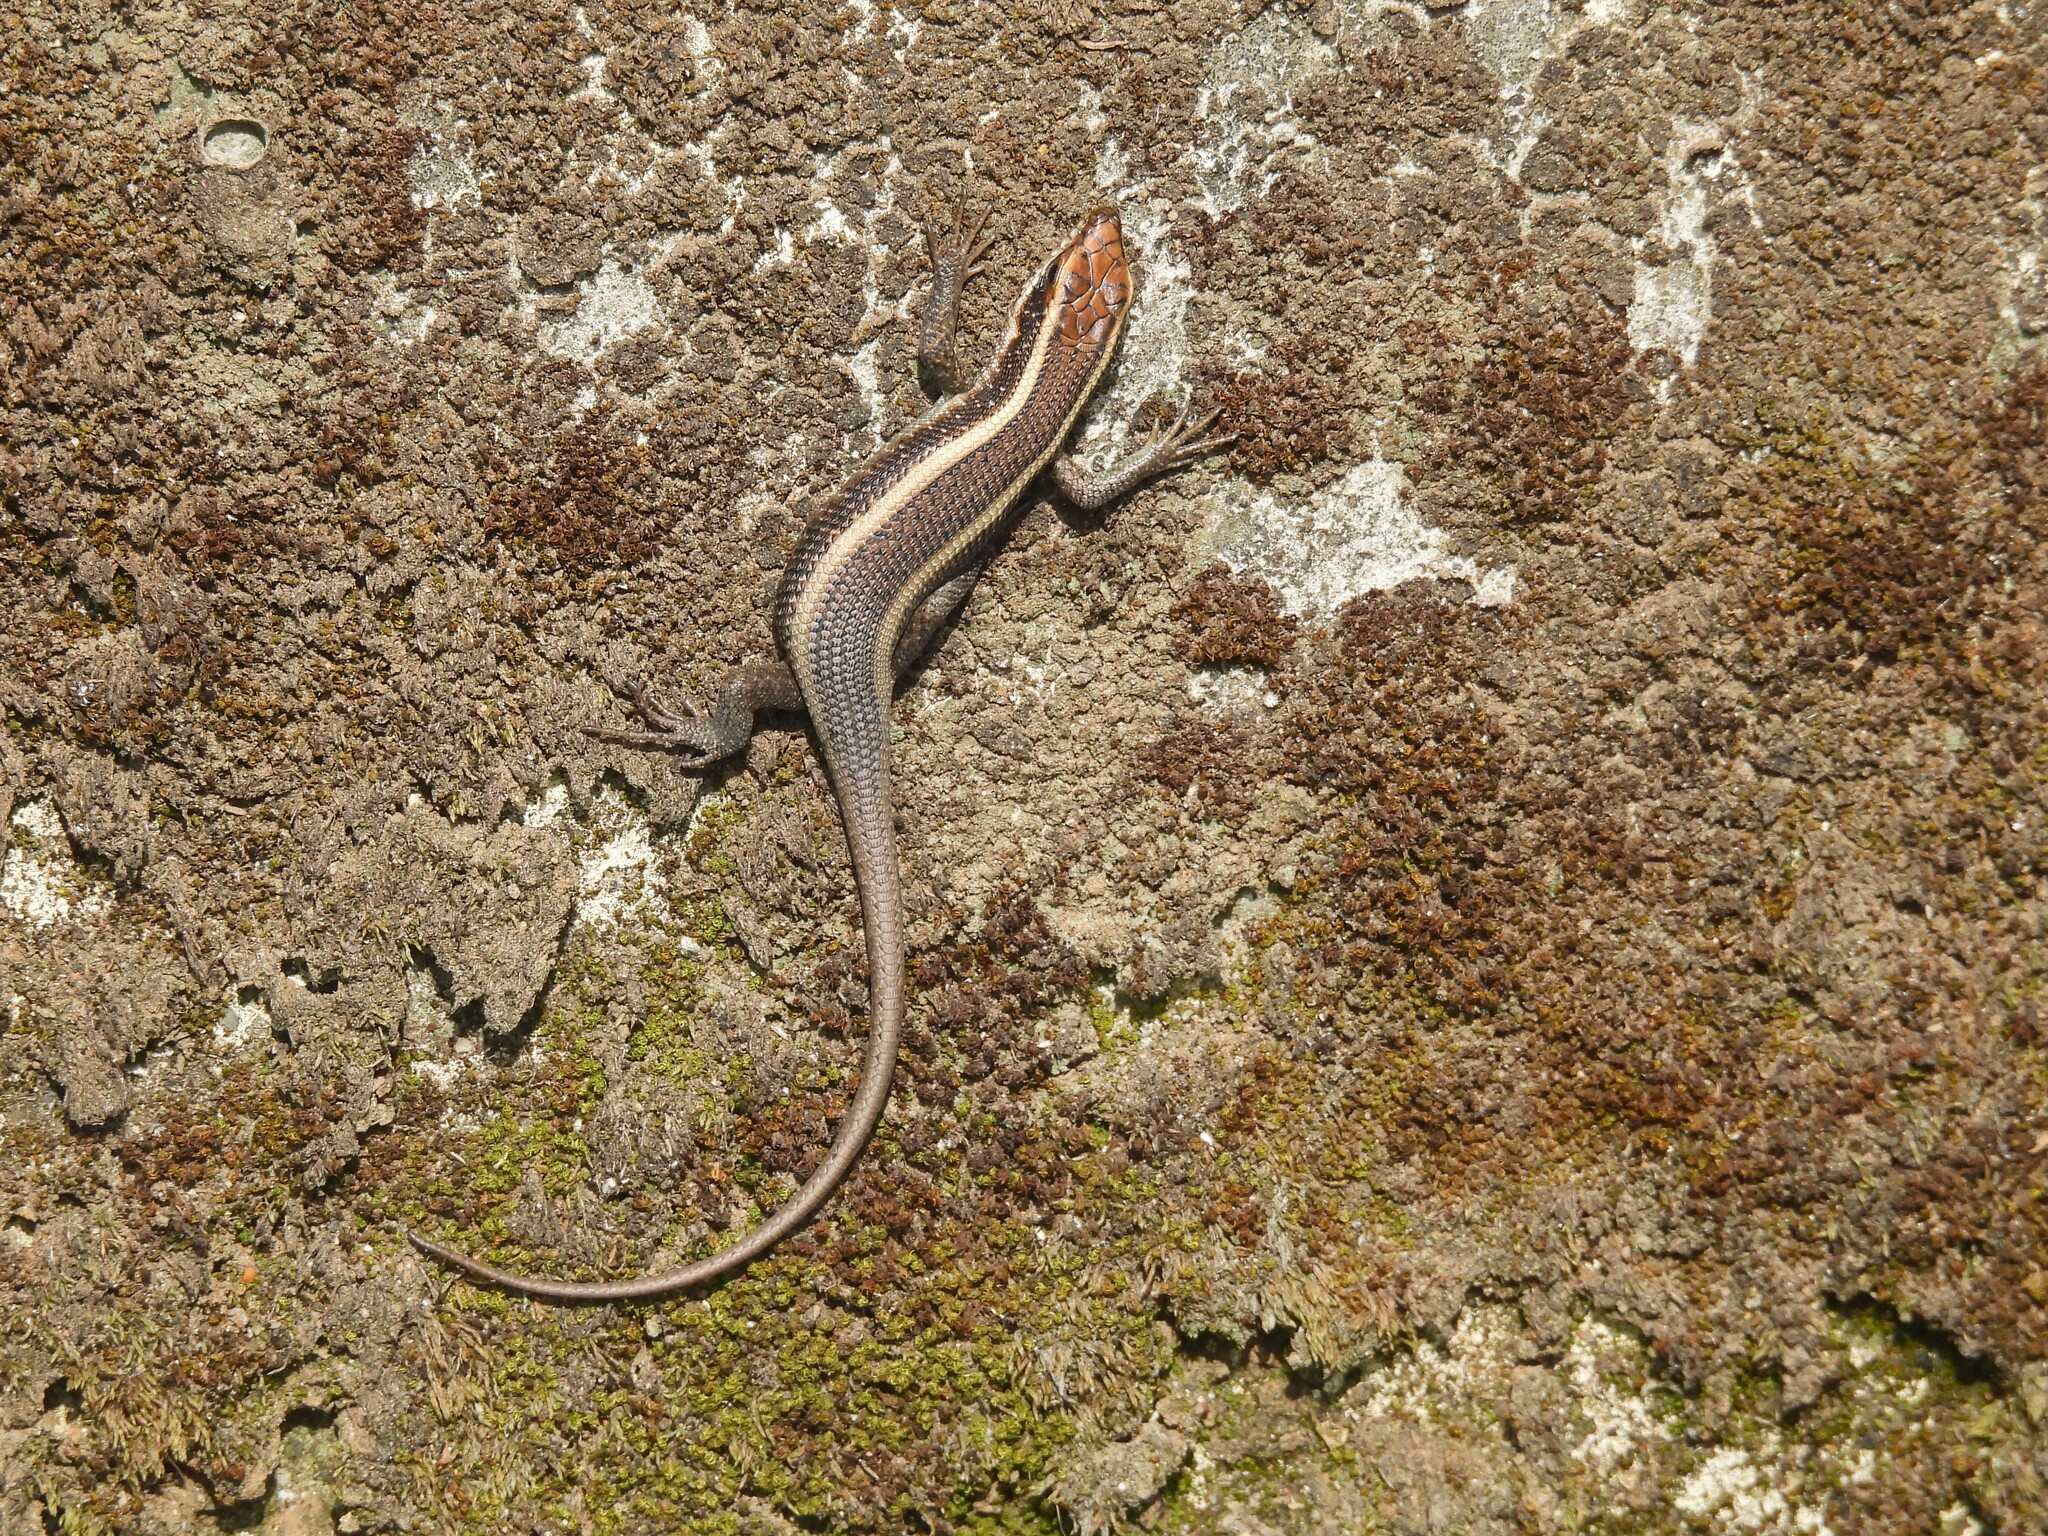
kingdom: Animalia
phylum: Chordata
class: Squamata
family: Scincidae
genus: Trachylepis
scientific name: Trachylepis striata
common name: African striped mabuya
